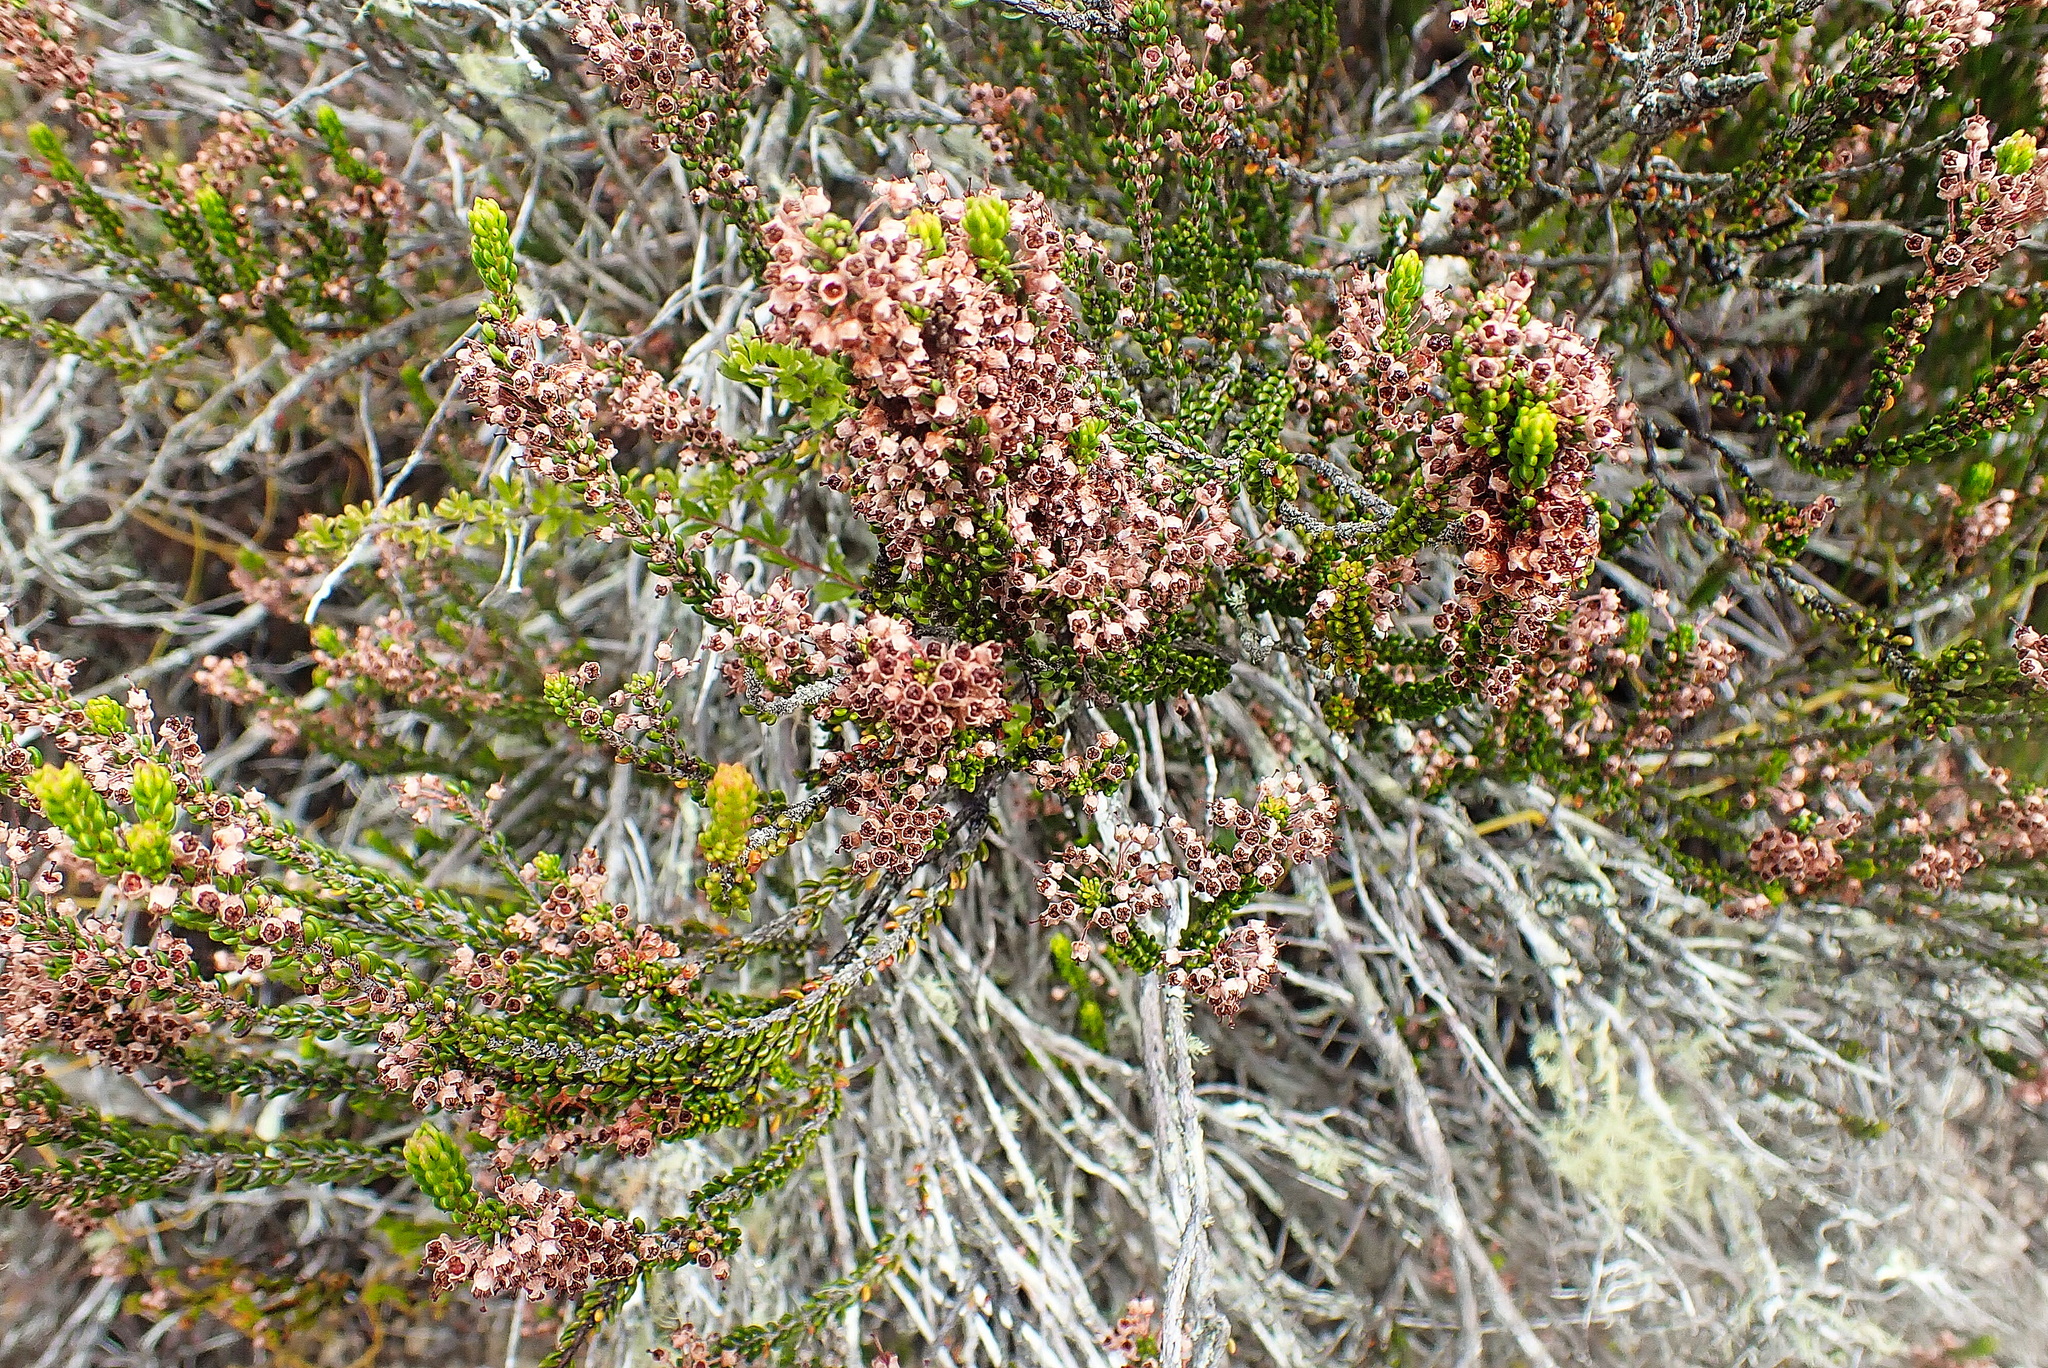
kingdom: Plantae
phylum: Tracheophyta
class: Magnoliopsida
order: Ericales
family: Ericaceae
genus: Erica
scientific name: Erica curtophylla
